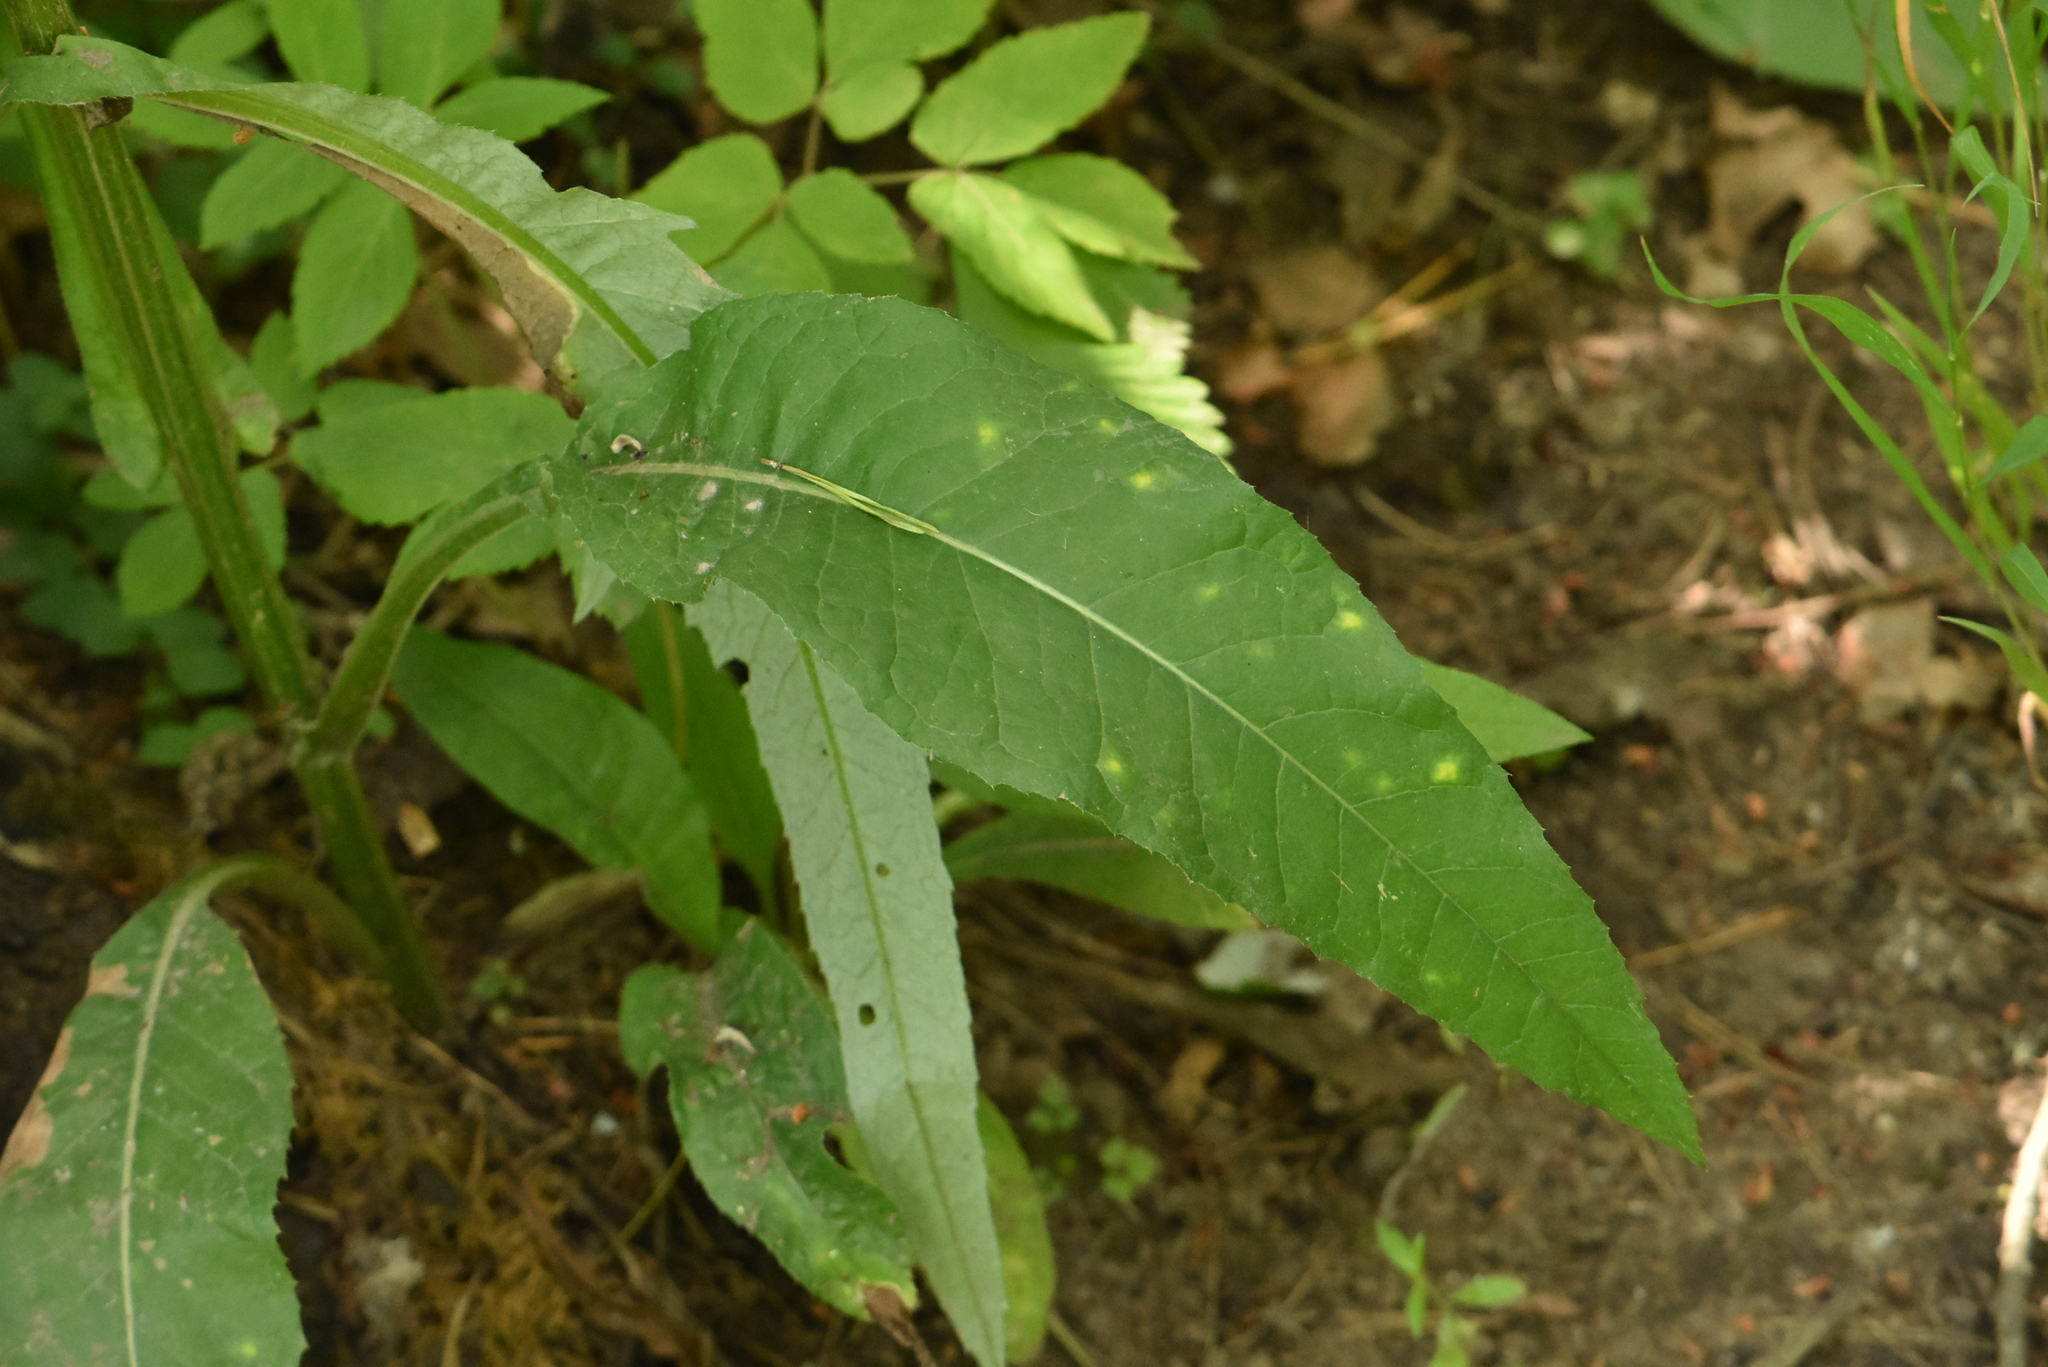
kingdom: Plantae
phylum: Tracheophyta
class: Magnoliopsida
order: Asterales
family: Asteraceae
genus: Cirsium
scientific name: Cirsium heterophyllum
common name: Melancholy thistle
